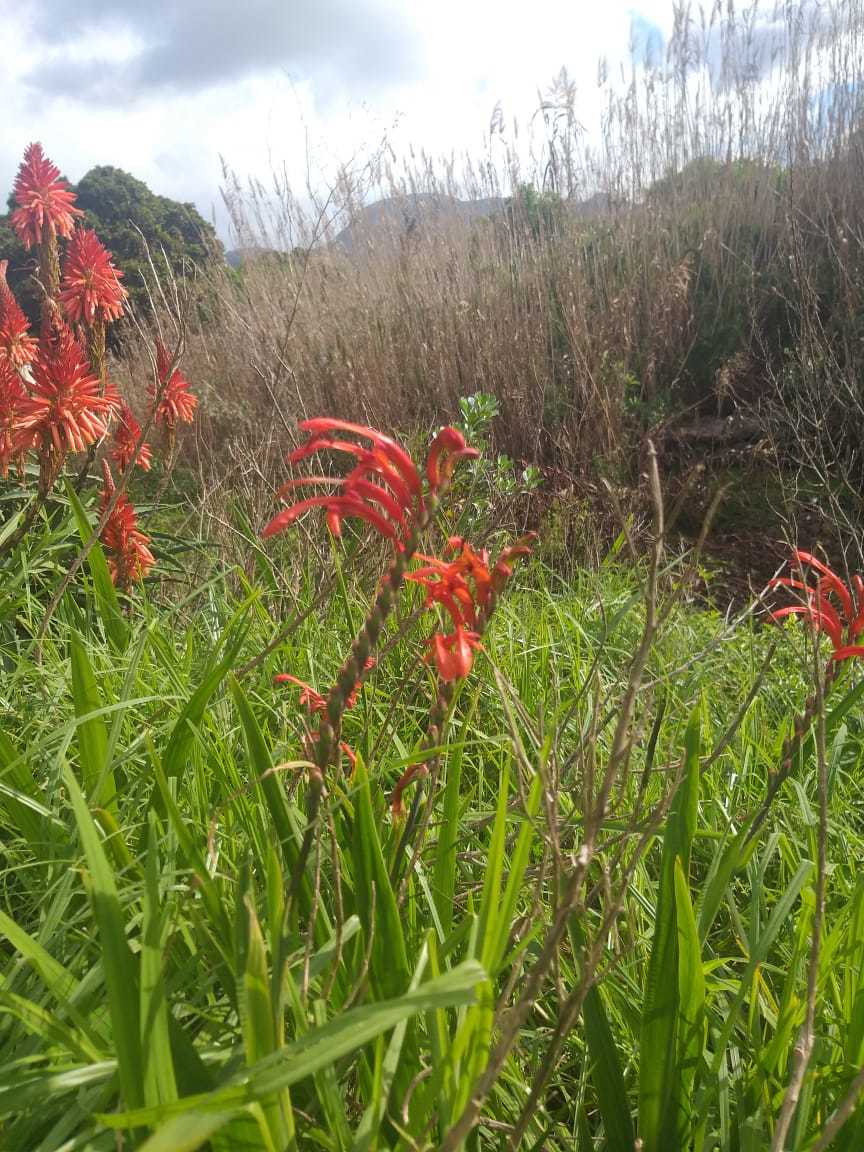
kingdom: Plantae
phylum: Tracheophyta
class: Liliopsida
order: Asparagales
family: Iridaceae
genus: Chasmanthe
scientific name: Chasmanthe aethiopica
